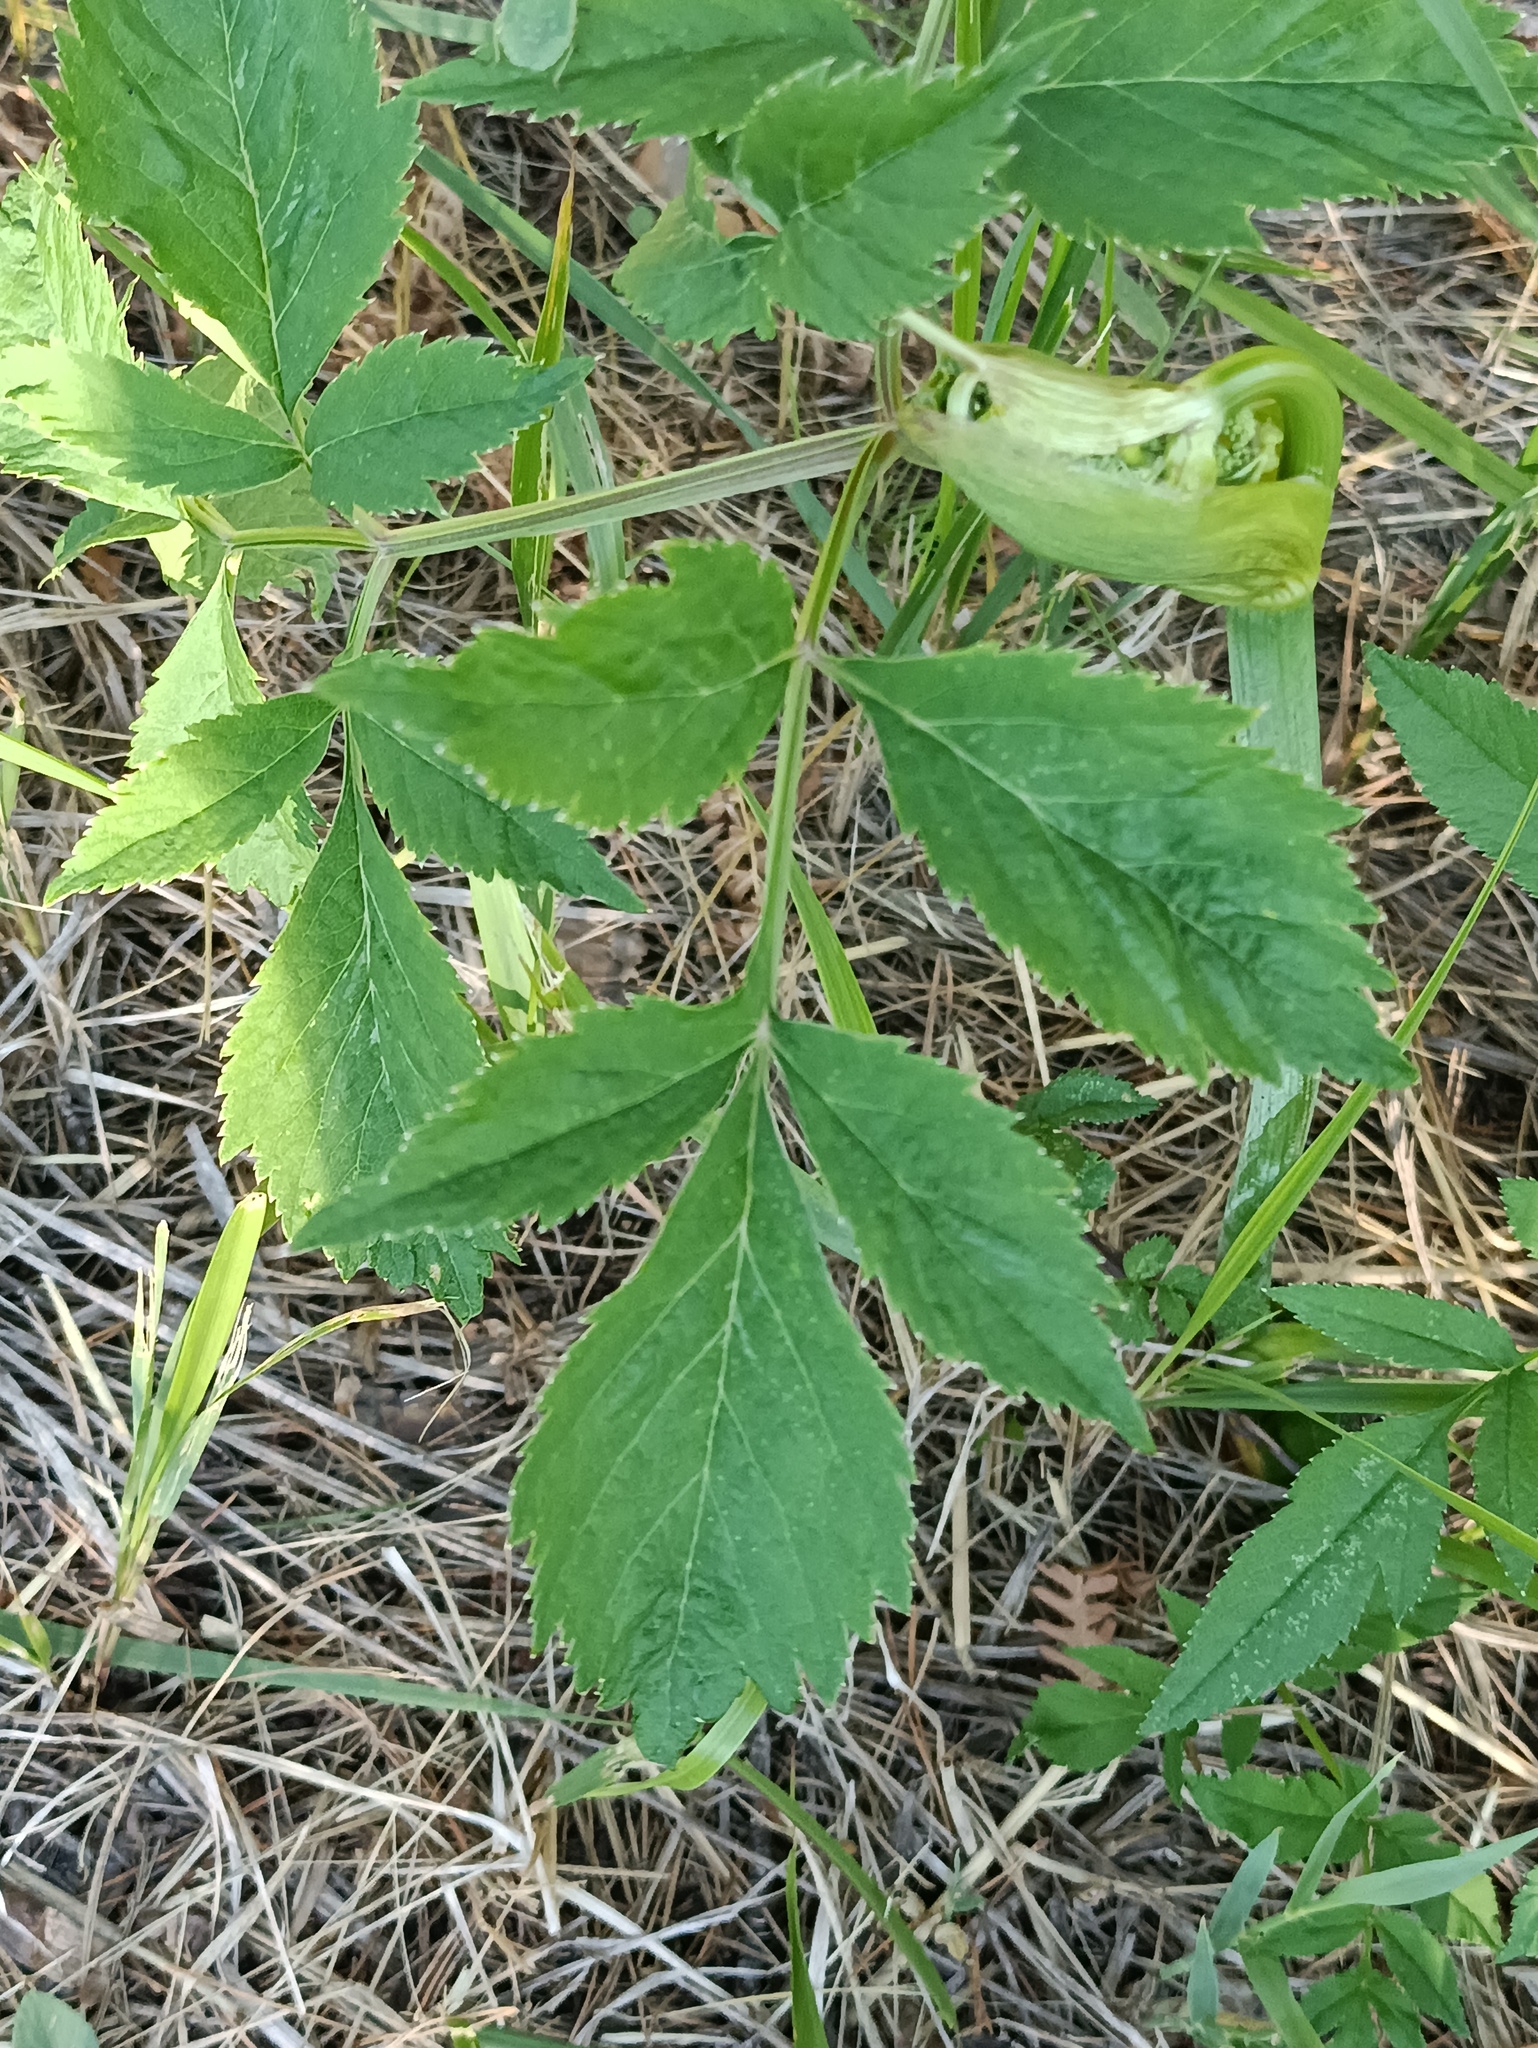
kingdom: Plantae
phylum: Tracheophyta
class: Magnoliopsida
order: Apiales
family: Apiaceae
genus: Angelica
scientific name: Angelica sylvestris
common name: Wild angelica
